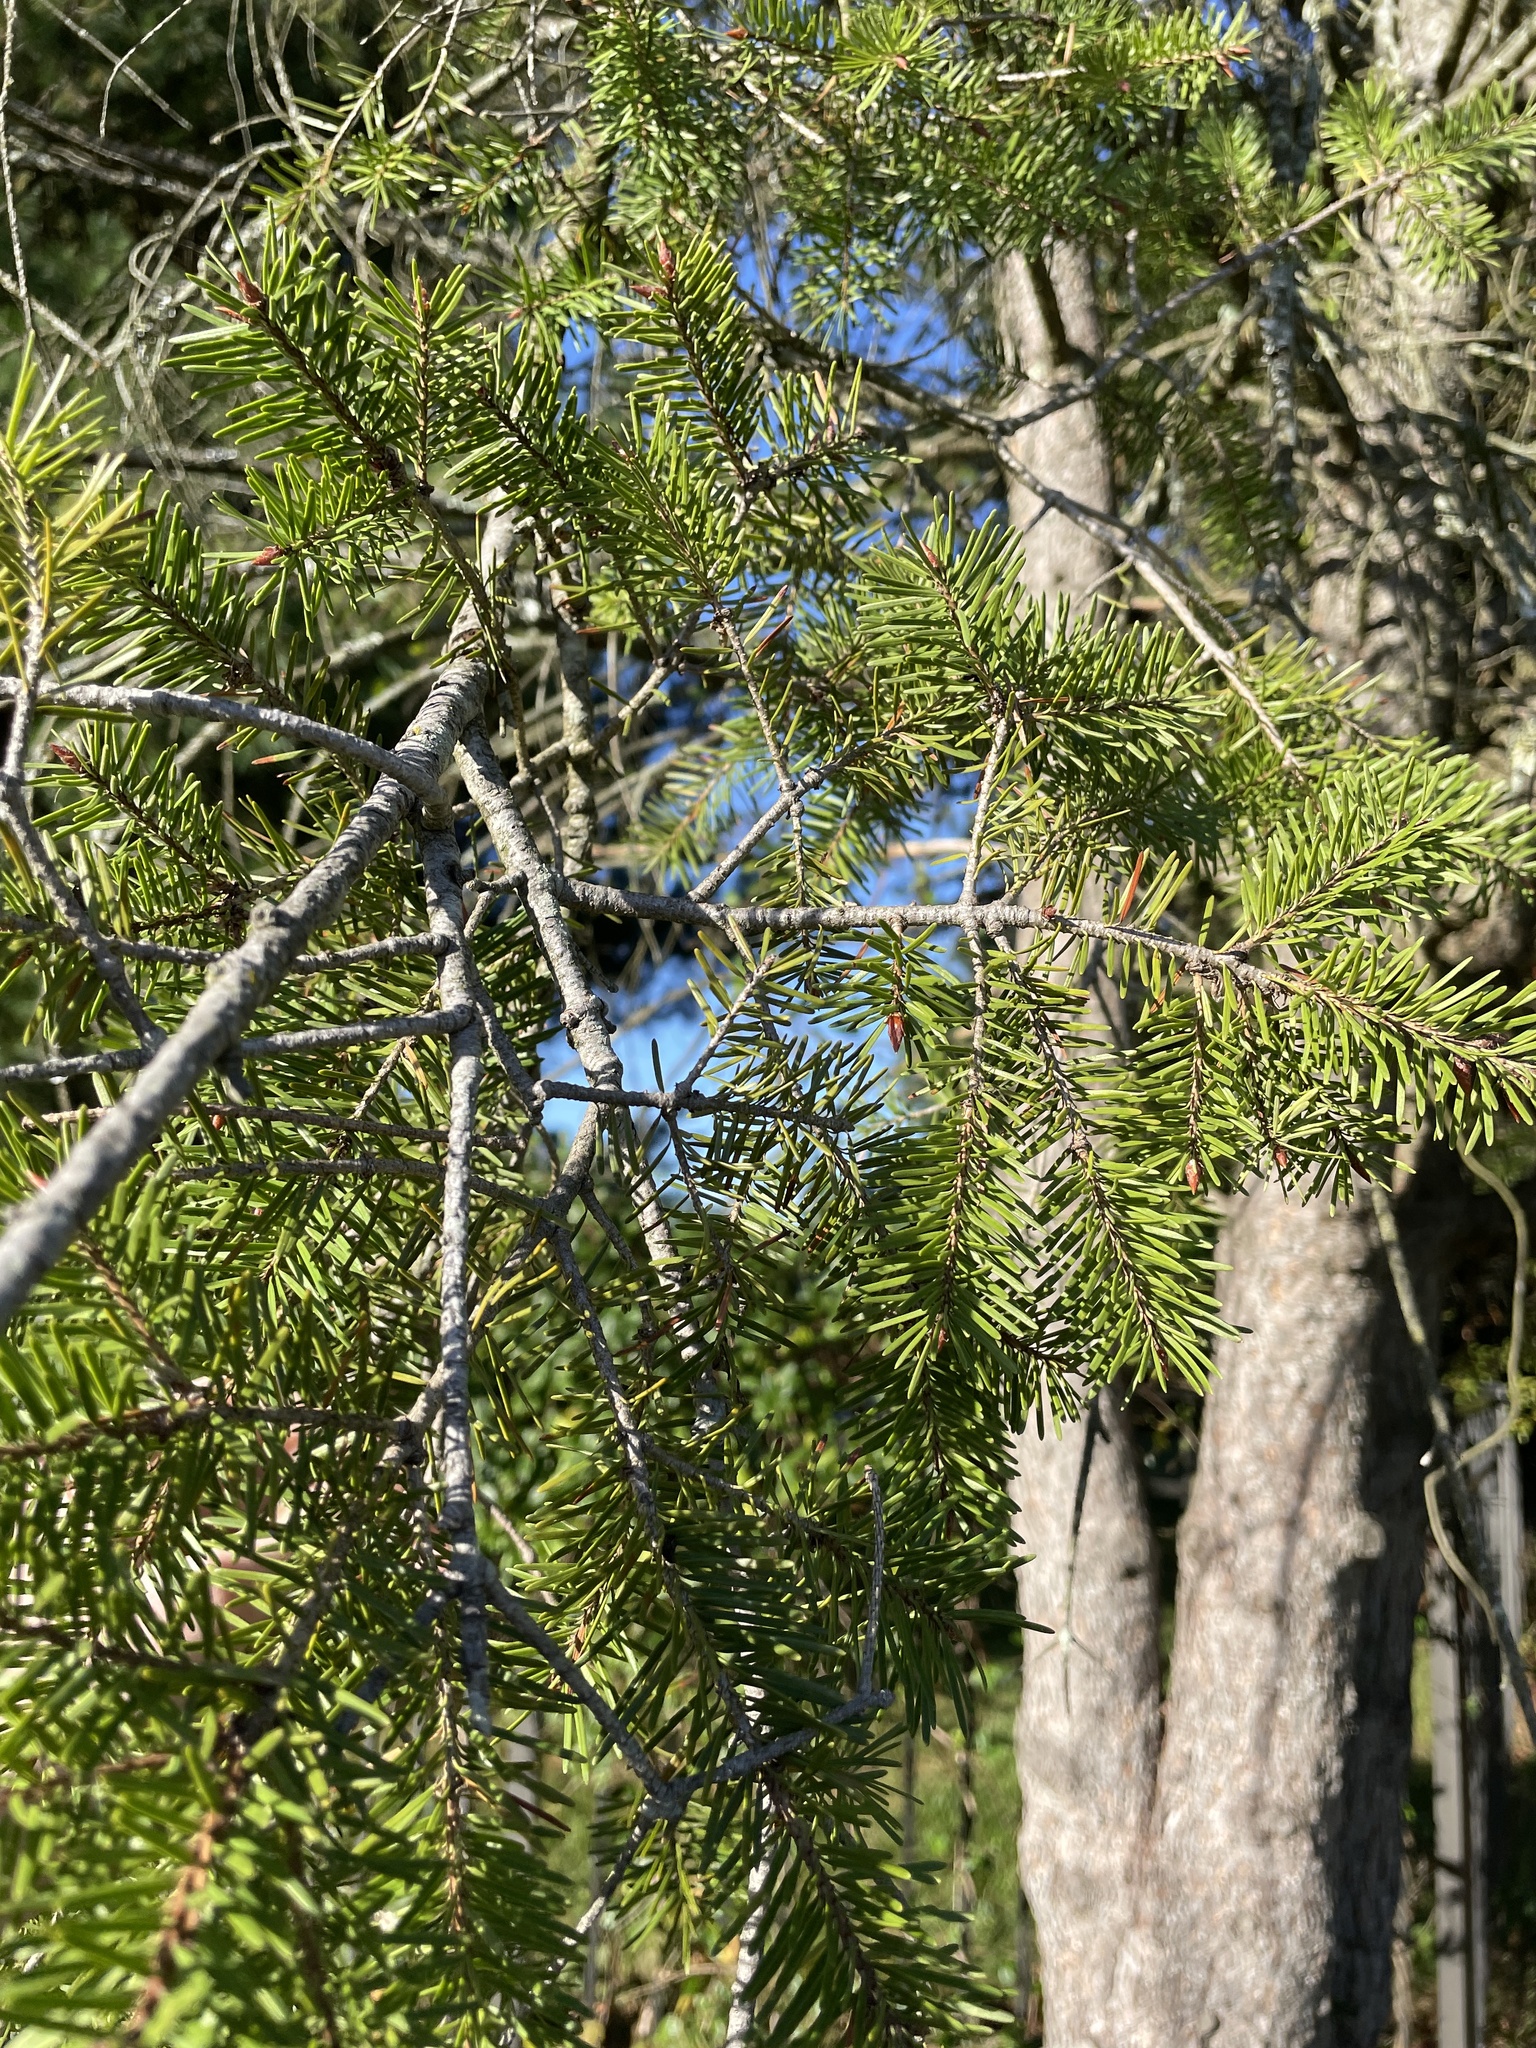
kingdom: Plantae
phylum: Tracheophyta
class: Pinopsida
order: Pinales
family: Pinaceae
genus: Pseudotsuga
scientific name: Pseudotsuga menziesii
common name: Douglas fir
